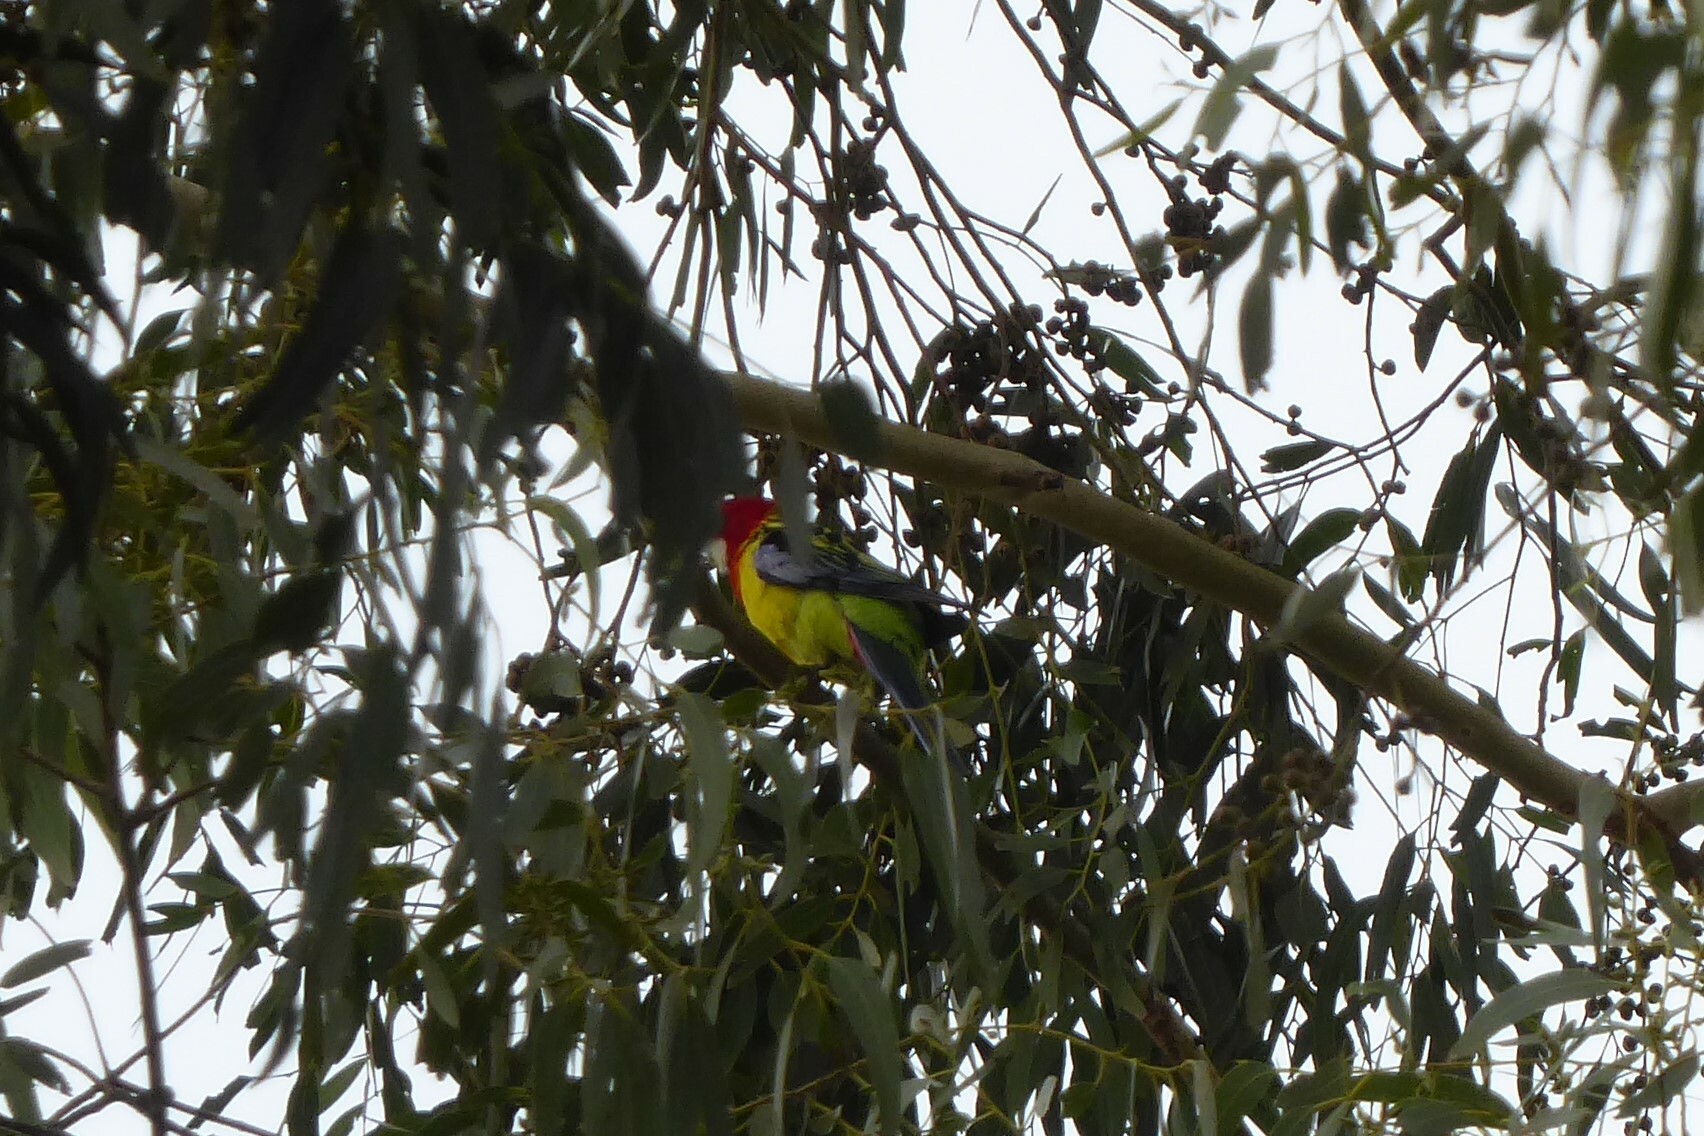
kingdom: Animalia
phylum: Chordata
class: Aves
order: Psittaciformes
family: Psittacidae
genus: Platycercus
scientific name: Platycercus eximius
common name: Eastern rosella
